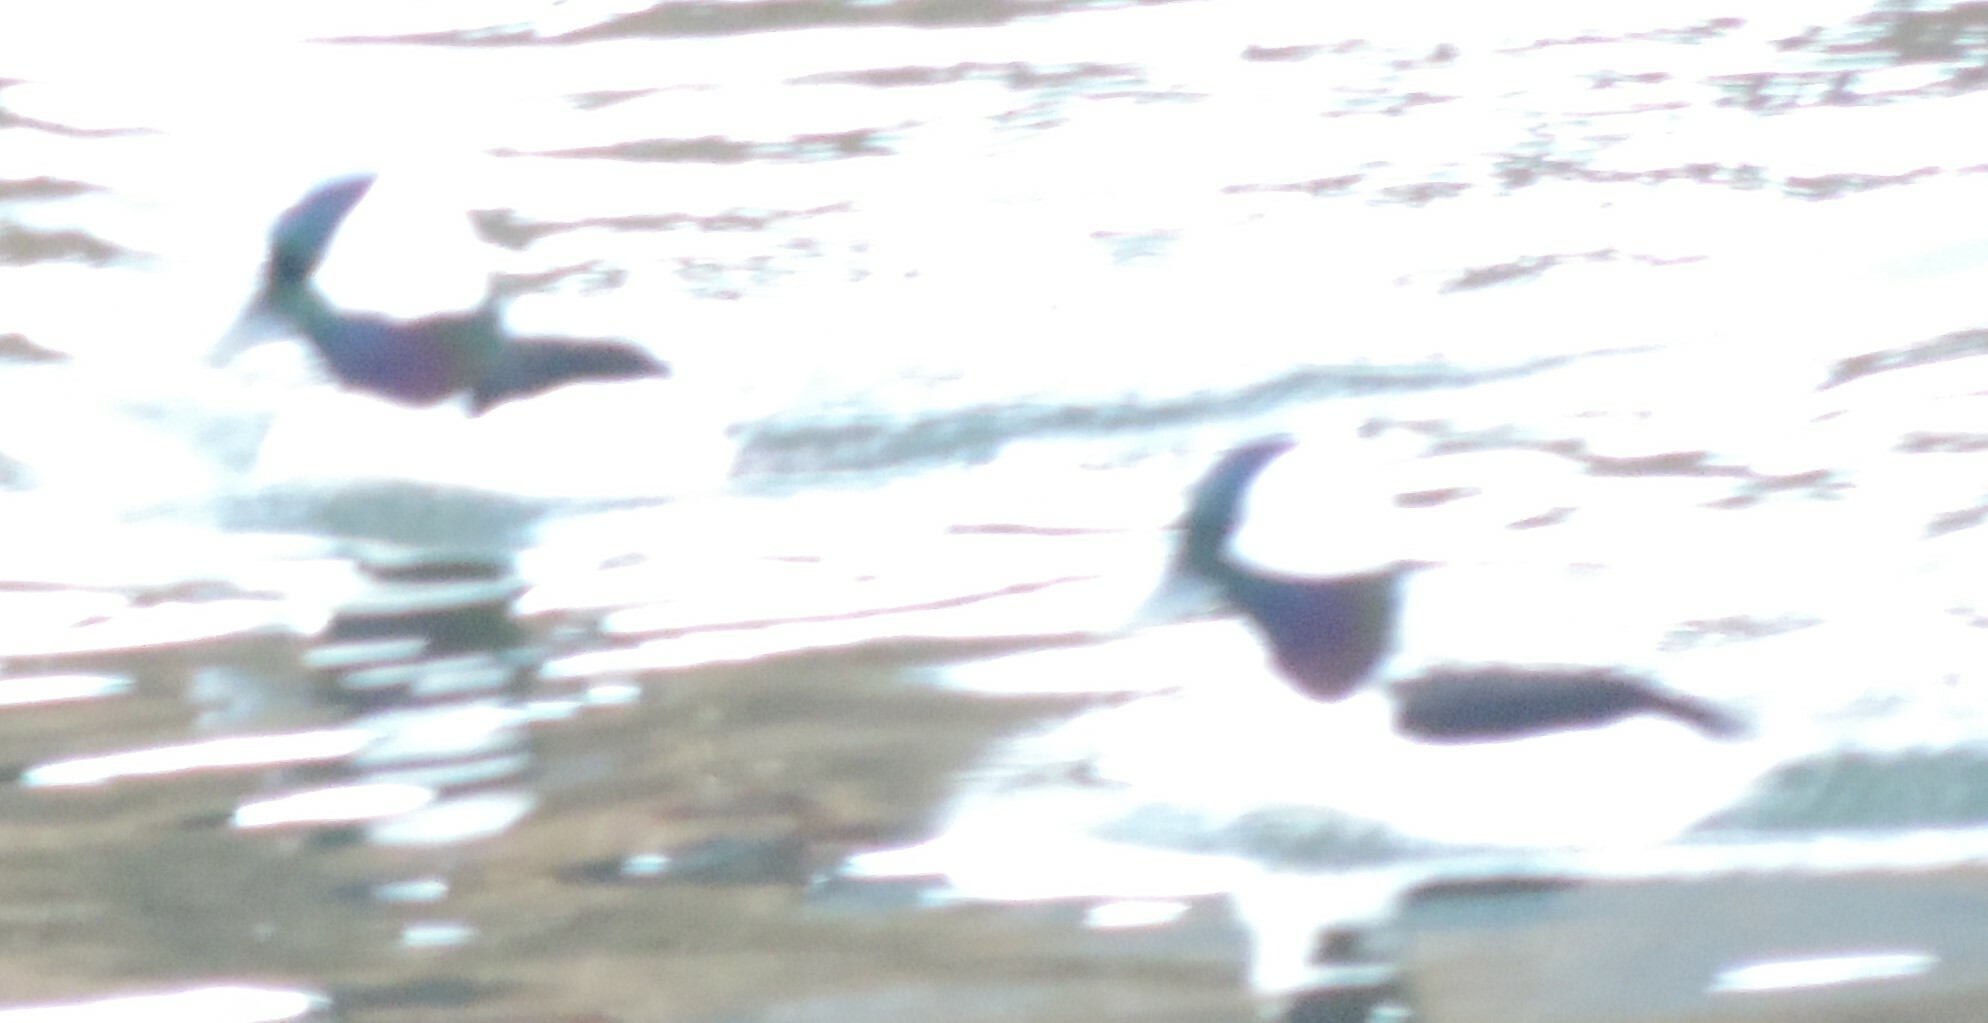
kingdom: Animalia
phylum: Chordata
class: Aves
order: Anseriformes
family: Anatidae
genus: Bucephala
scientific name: Bucephala albeola
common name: Bufflehead
